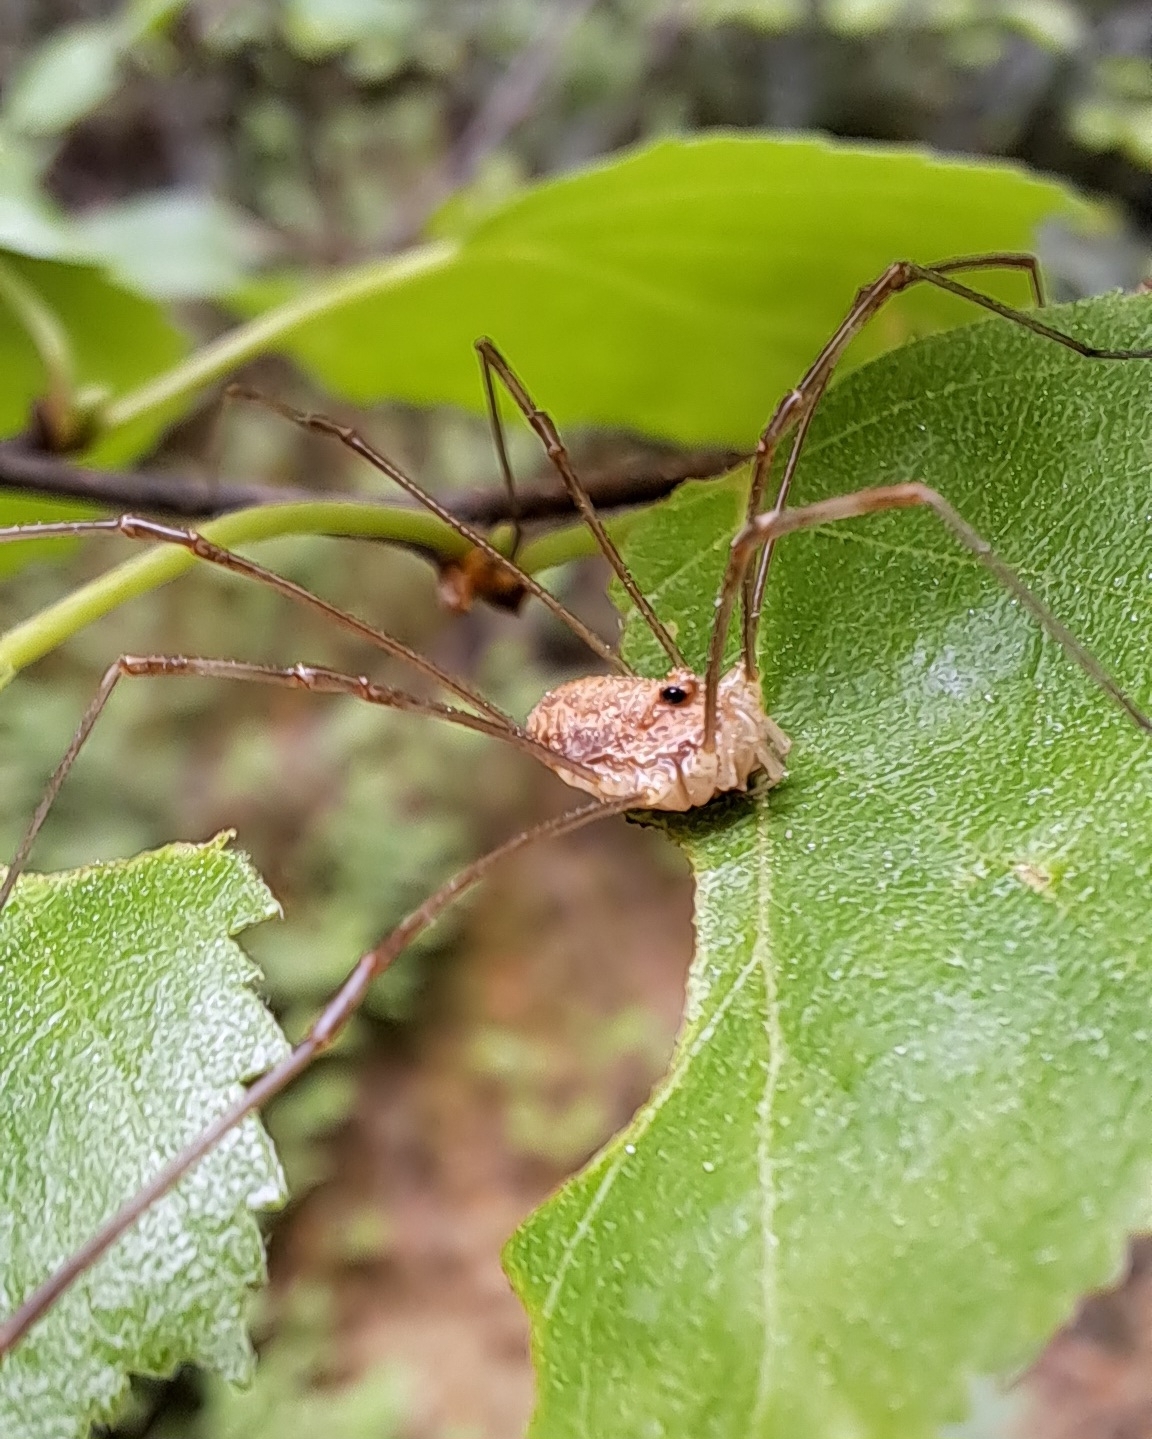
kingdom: Animalia
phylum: Arthropoda
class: Arachnida
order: Opiliones
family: Phalangiidae
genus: Rilaena
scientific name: Rilaena triangularis
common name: Spring harvestman
